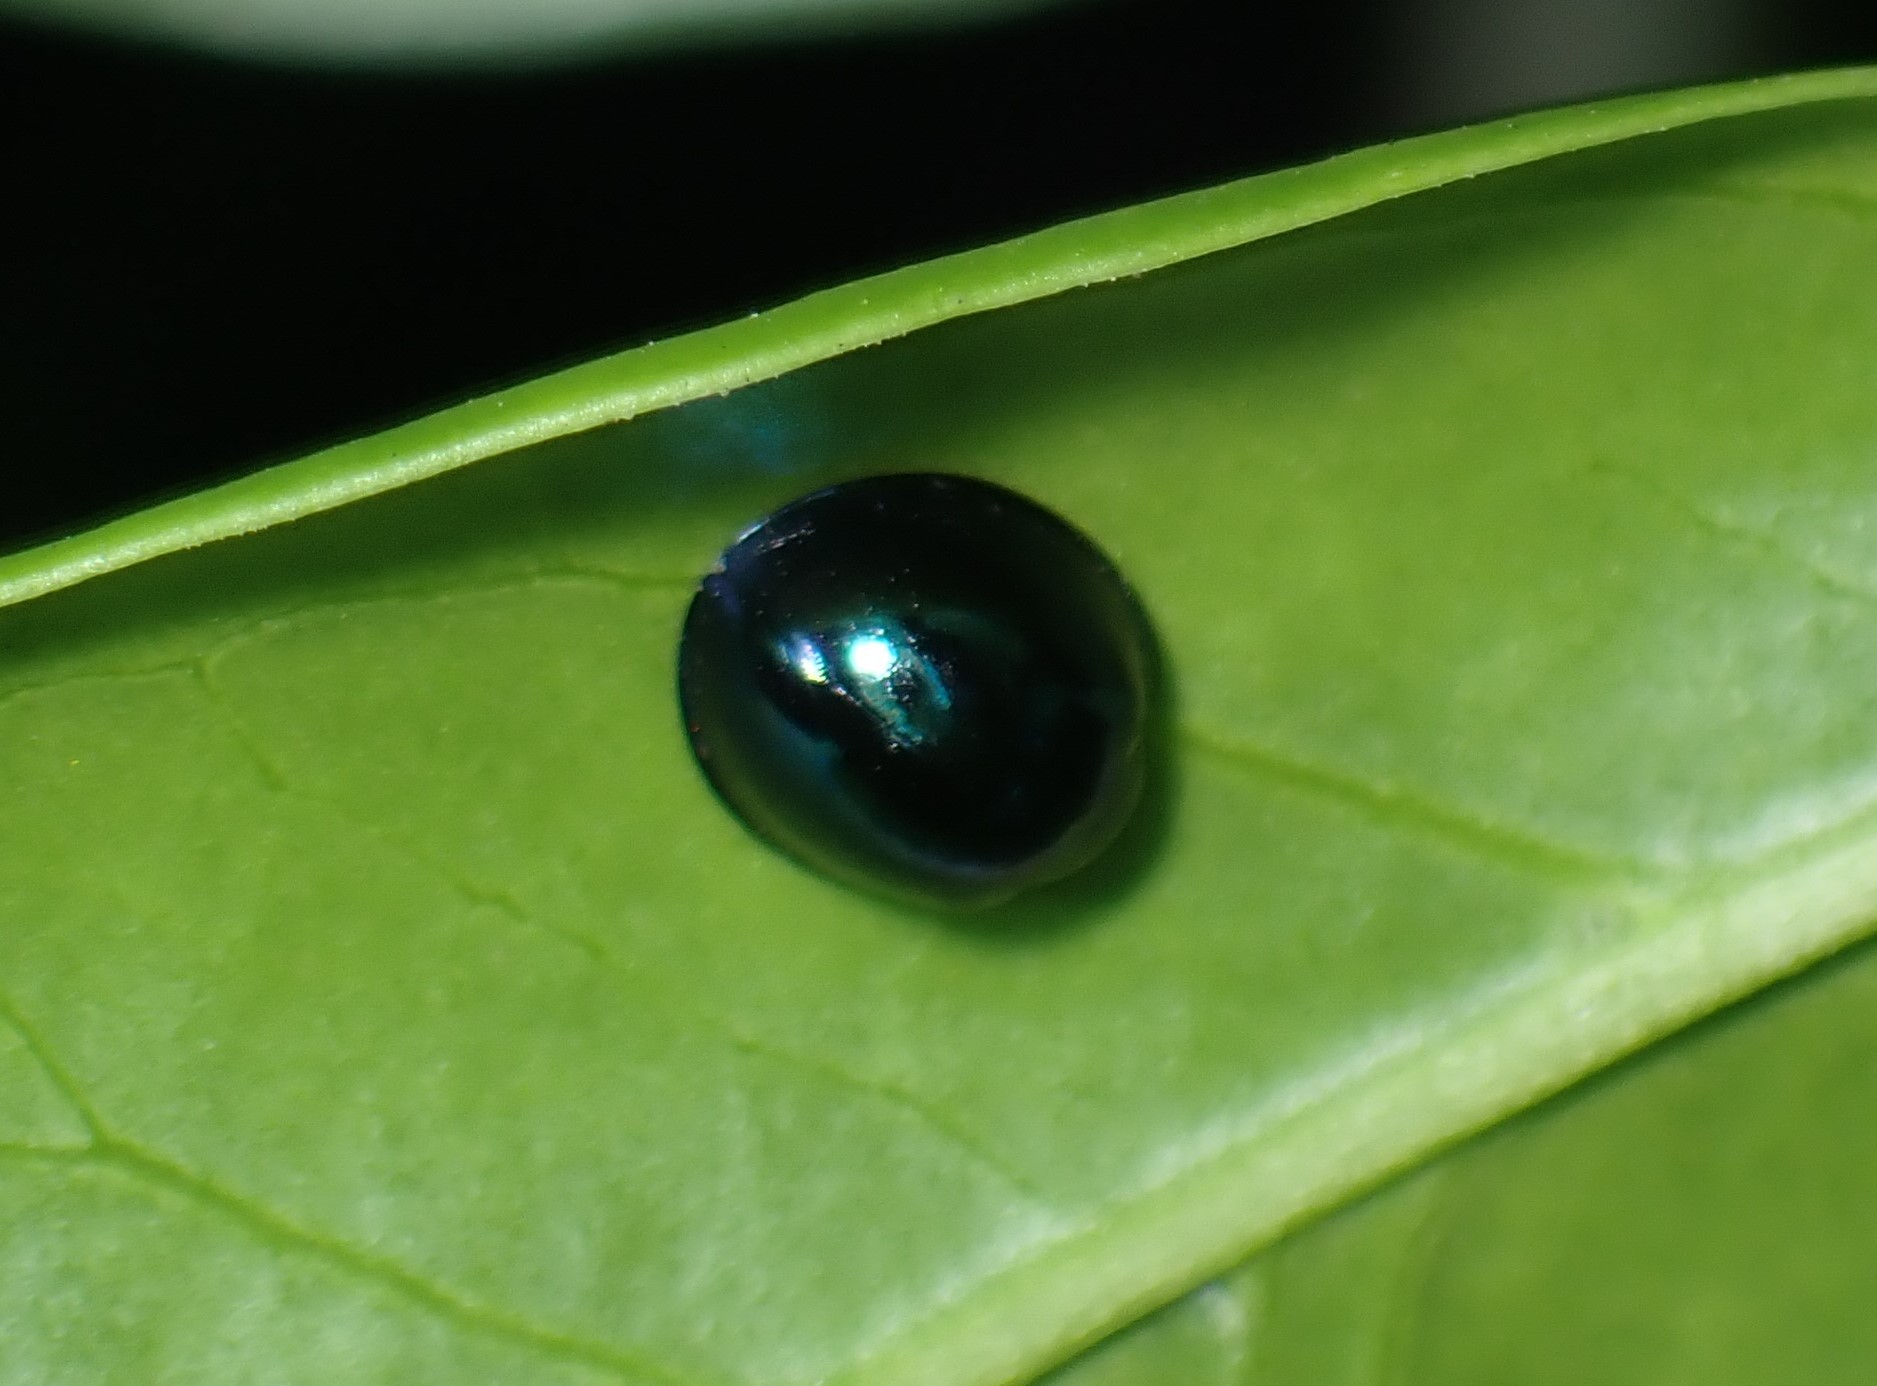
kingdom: Animalia
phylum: Arthropoda
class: Insecta
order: Coleoptera
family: Coccinellidae
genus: Halmus
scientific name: Halmus chalybeus
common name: Steel blue ladybird beetle
